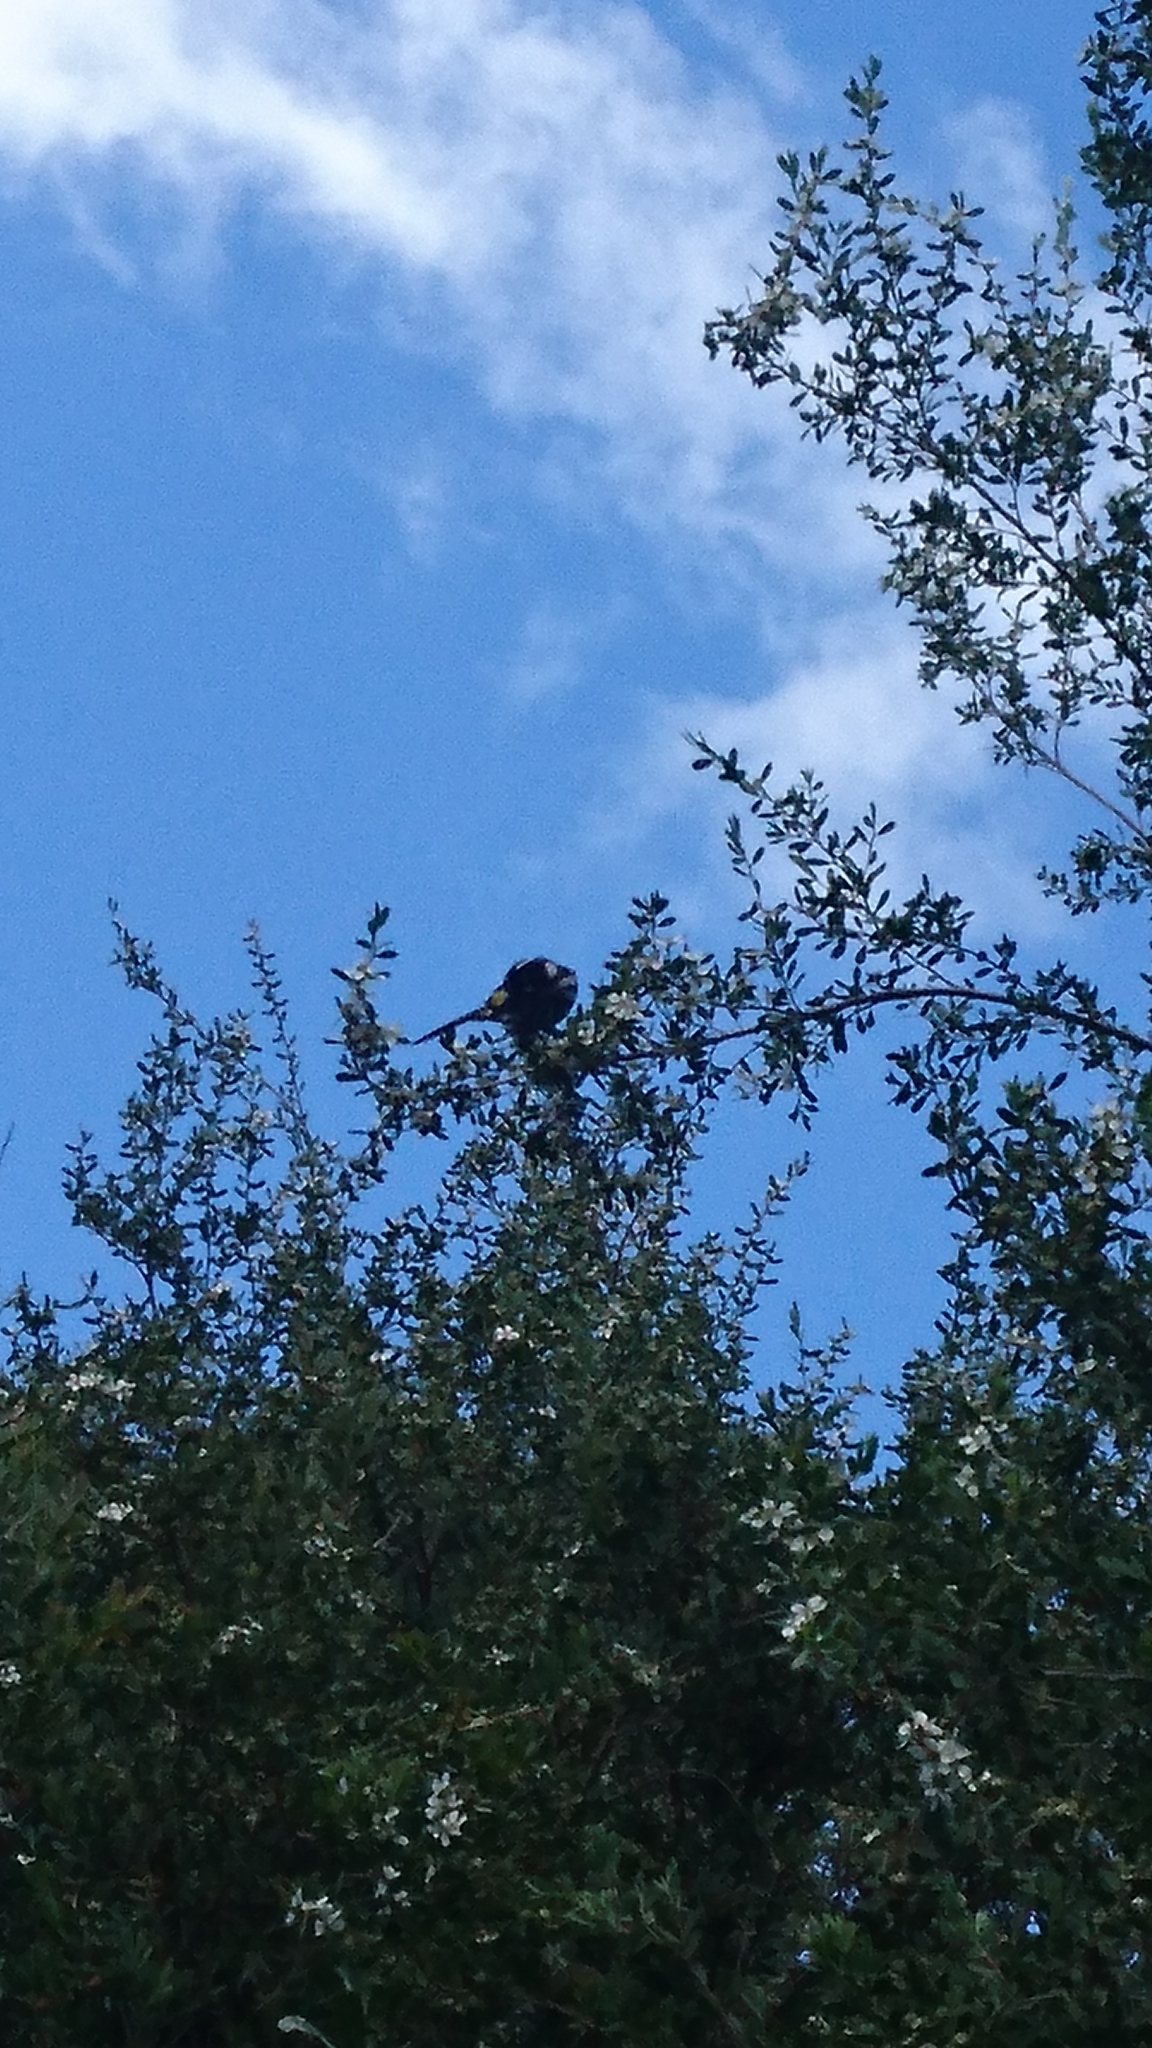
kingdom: Animalia
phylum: Chordata
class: Aves
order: Passeriformes
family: Meliphagidae
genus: Phylidonyris
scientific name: Phylidonyris novaehollandiae
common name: New holland honeyeater
